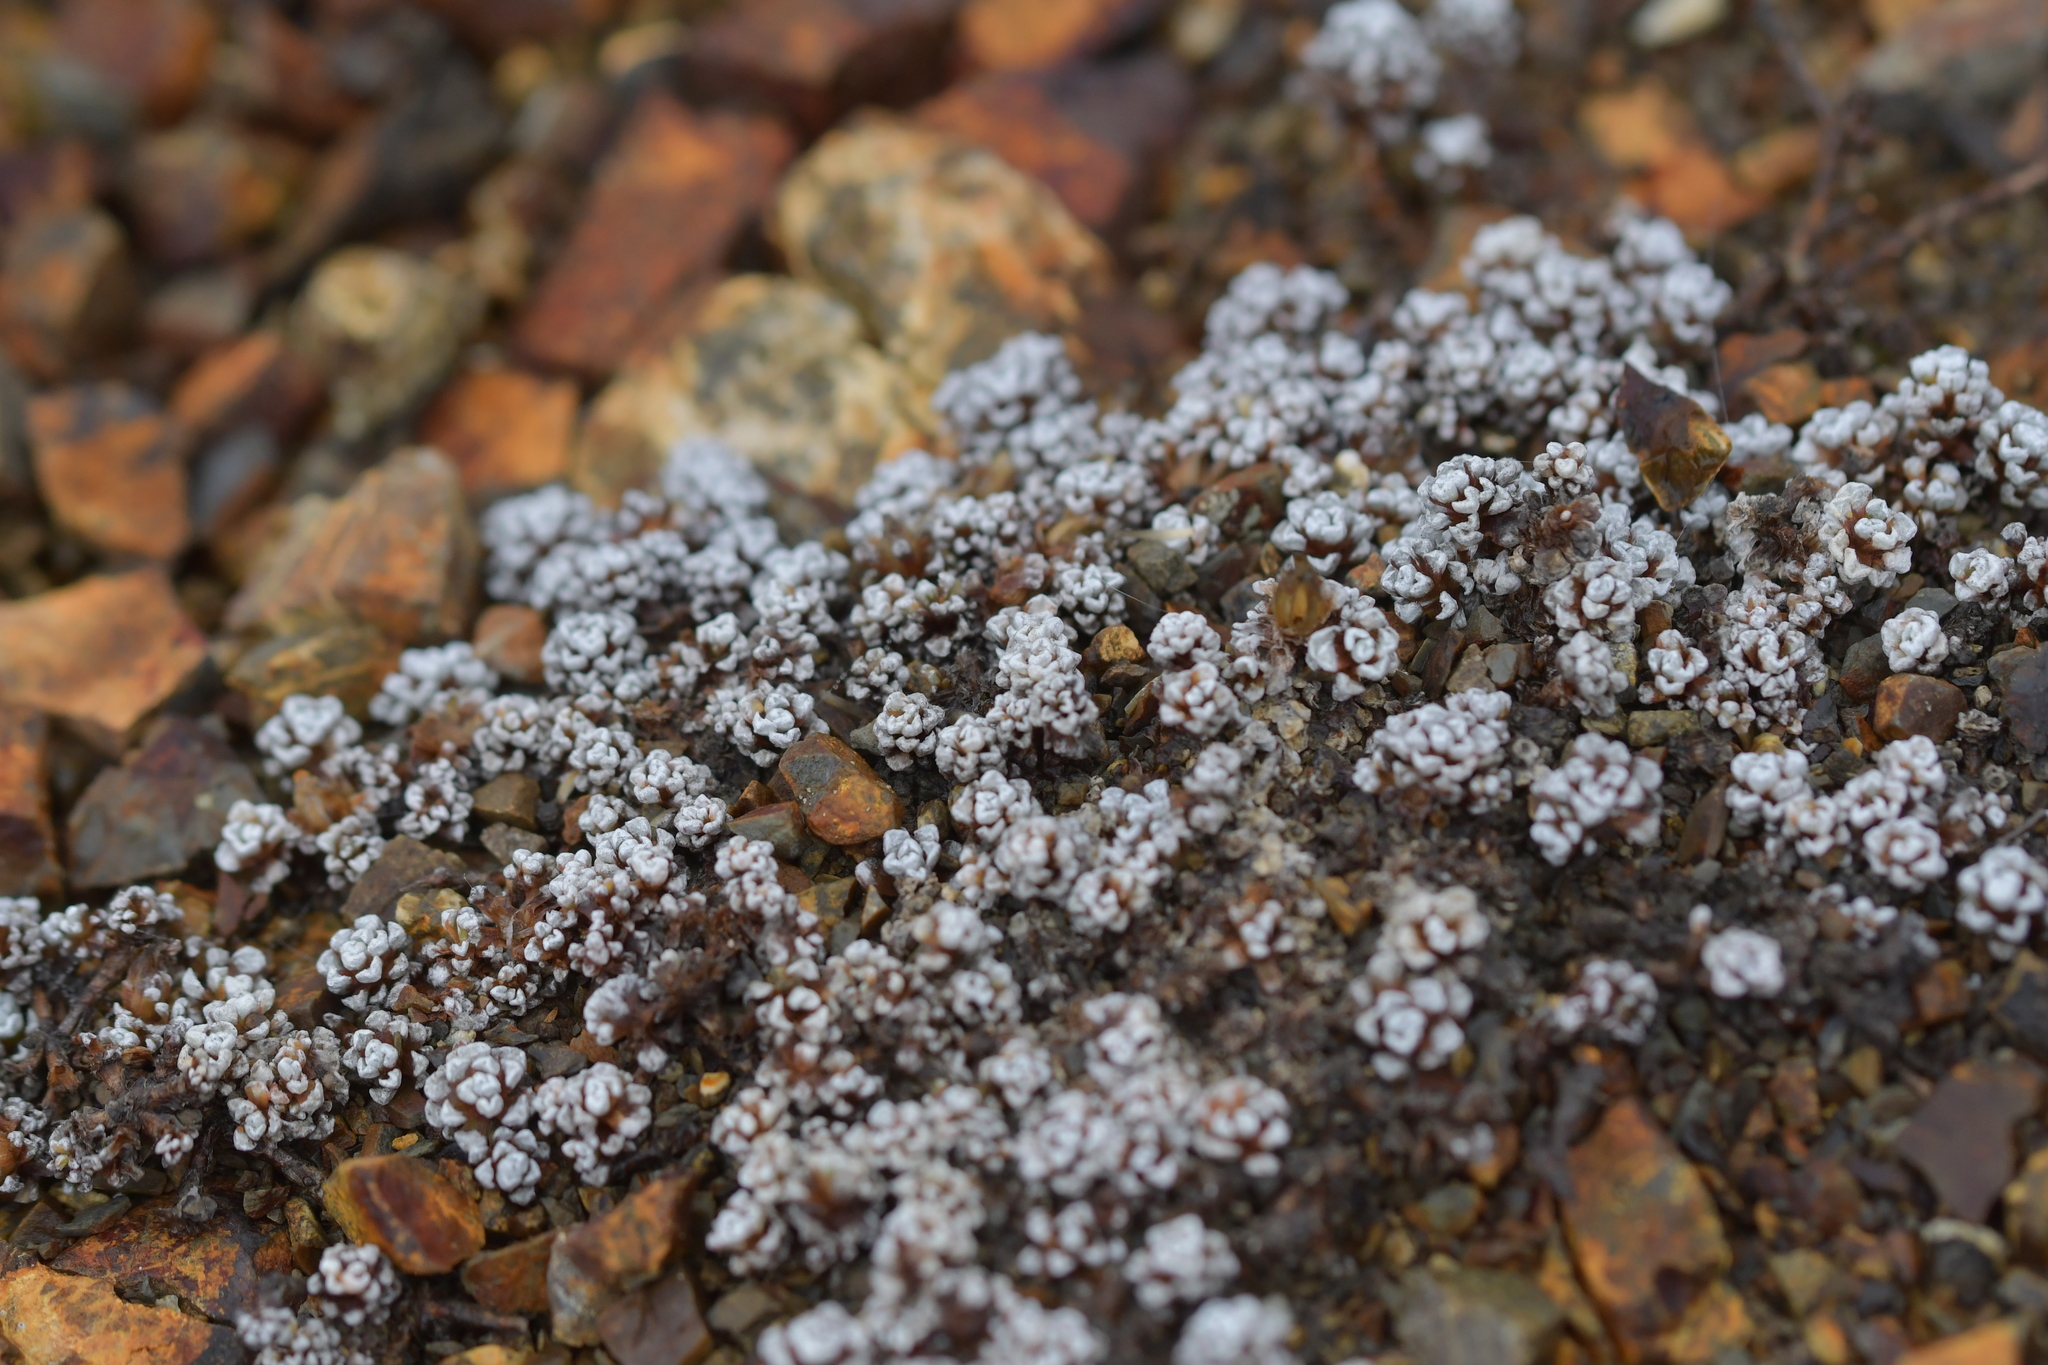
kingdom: Plantae
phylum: Tracheophyta
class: Magnoliopsida
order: Asterales
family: Asteraceae
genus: Raoulia
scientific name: Raoulia albosericea
